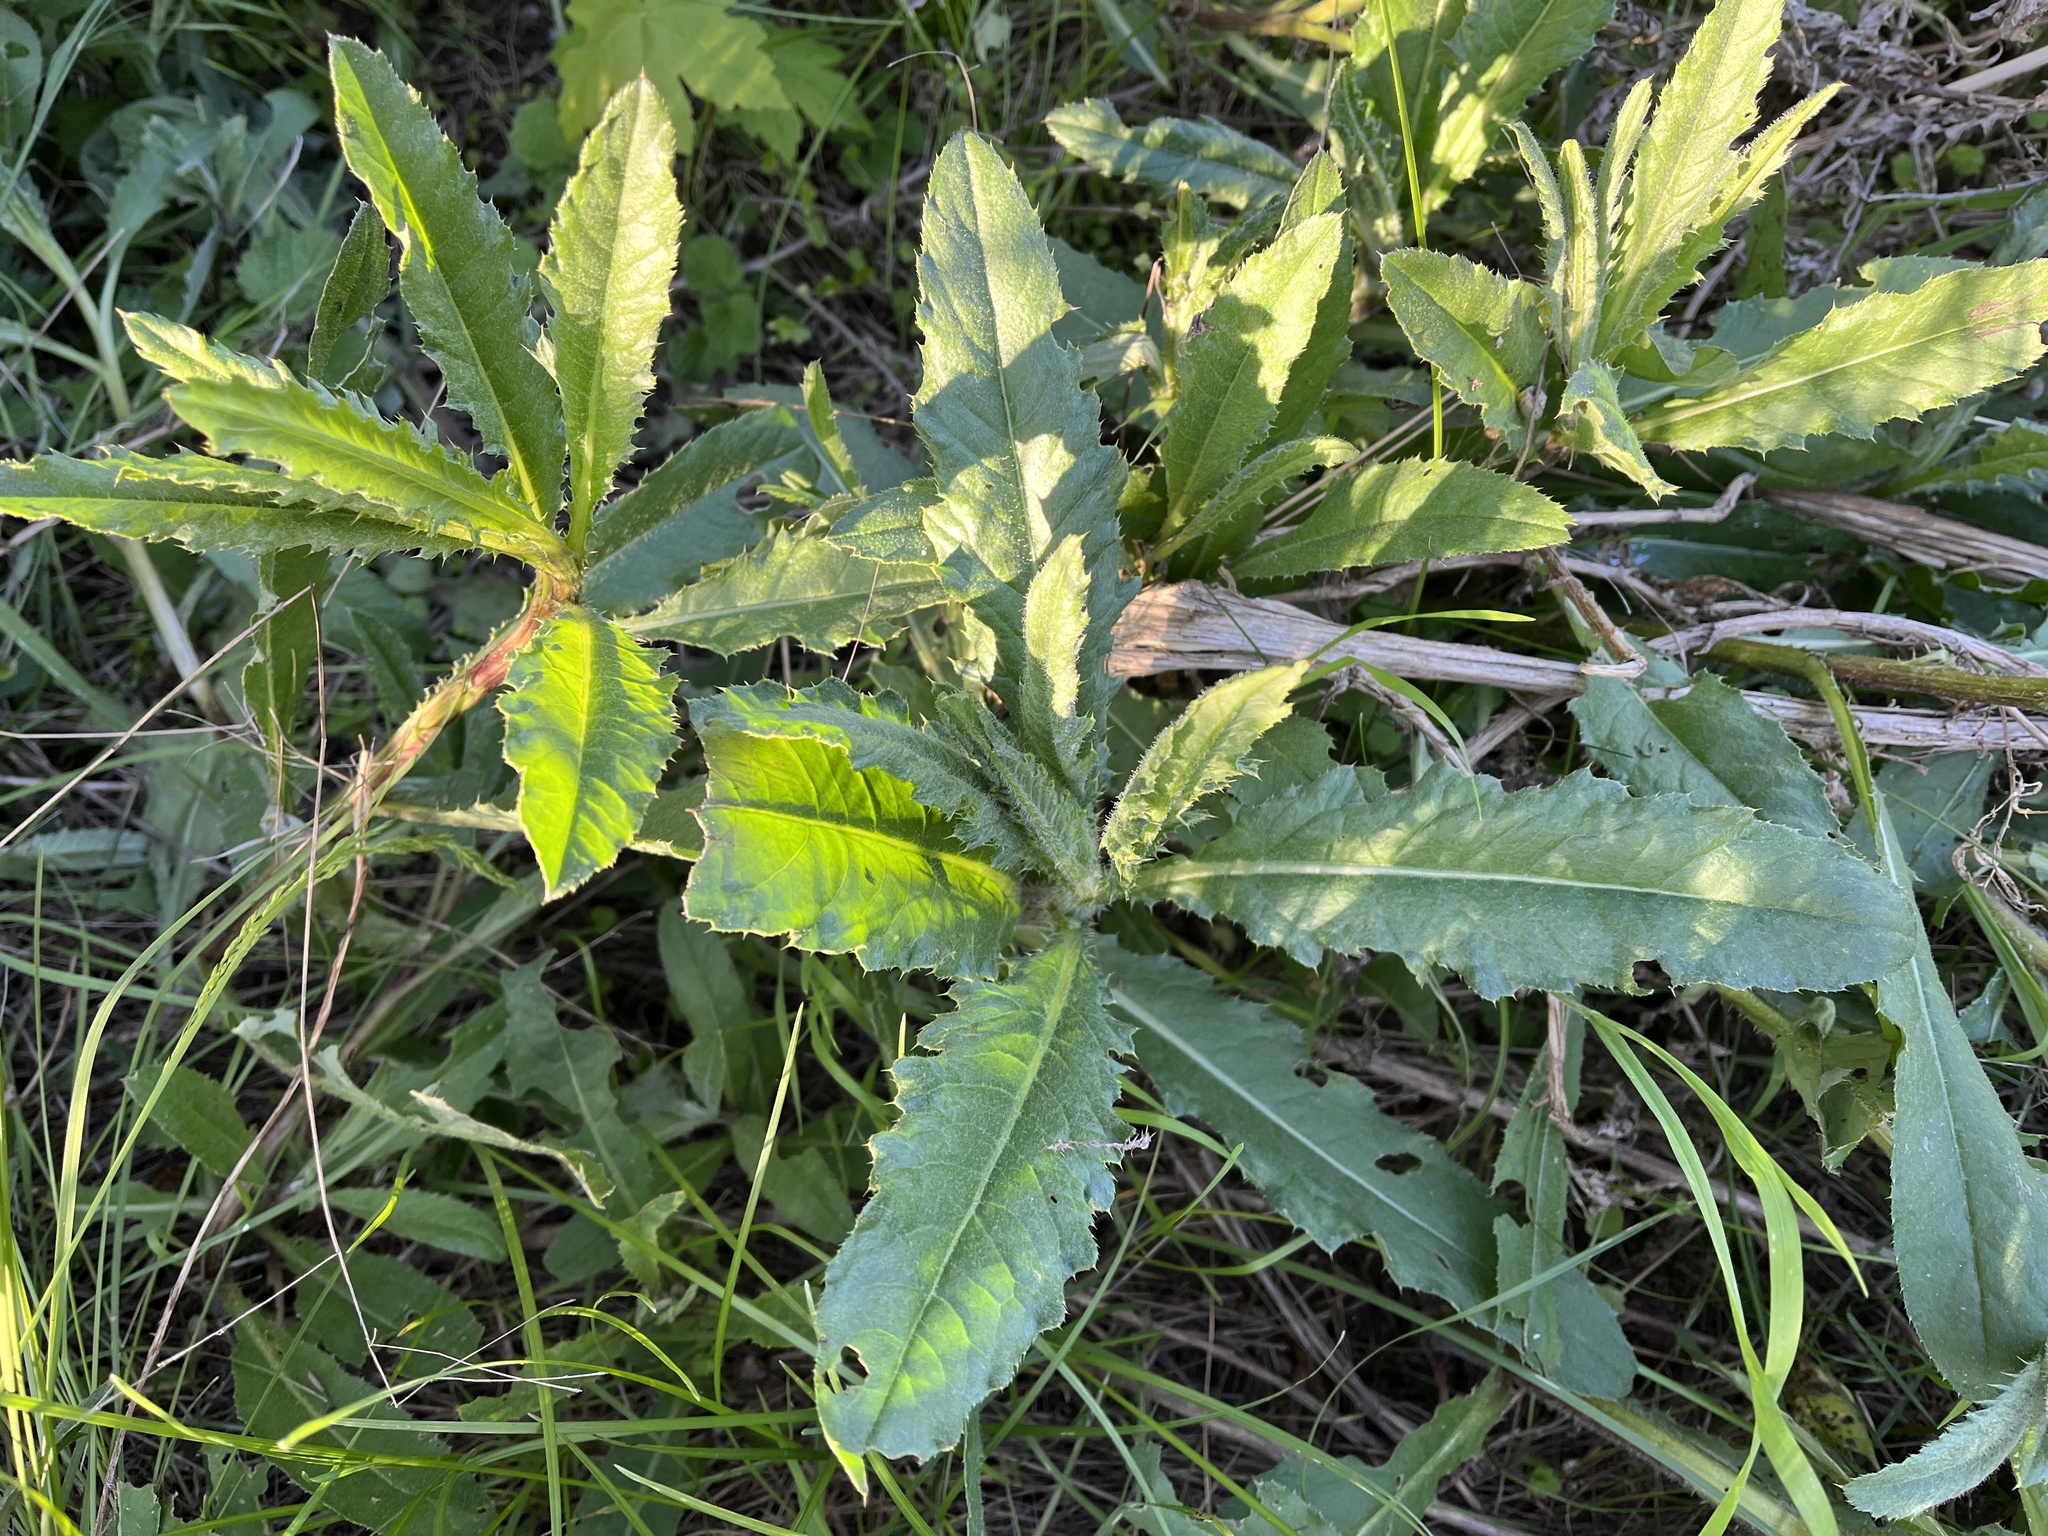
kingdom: Plantae
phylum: Tracheophyta
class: Magnoliopsida
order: Asterales
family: Asteraceae
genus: Cirsium
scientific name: Cirsium arvense
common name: Creeping thistle
